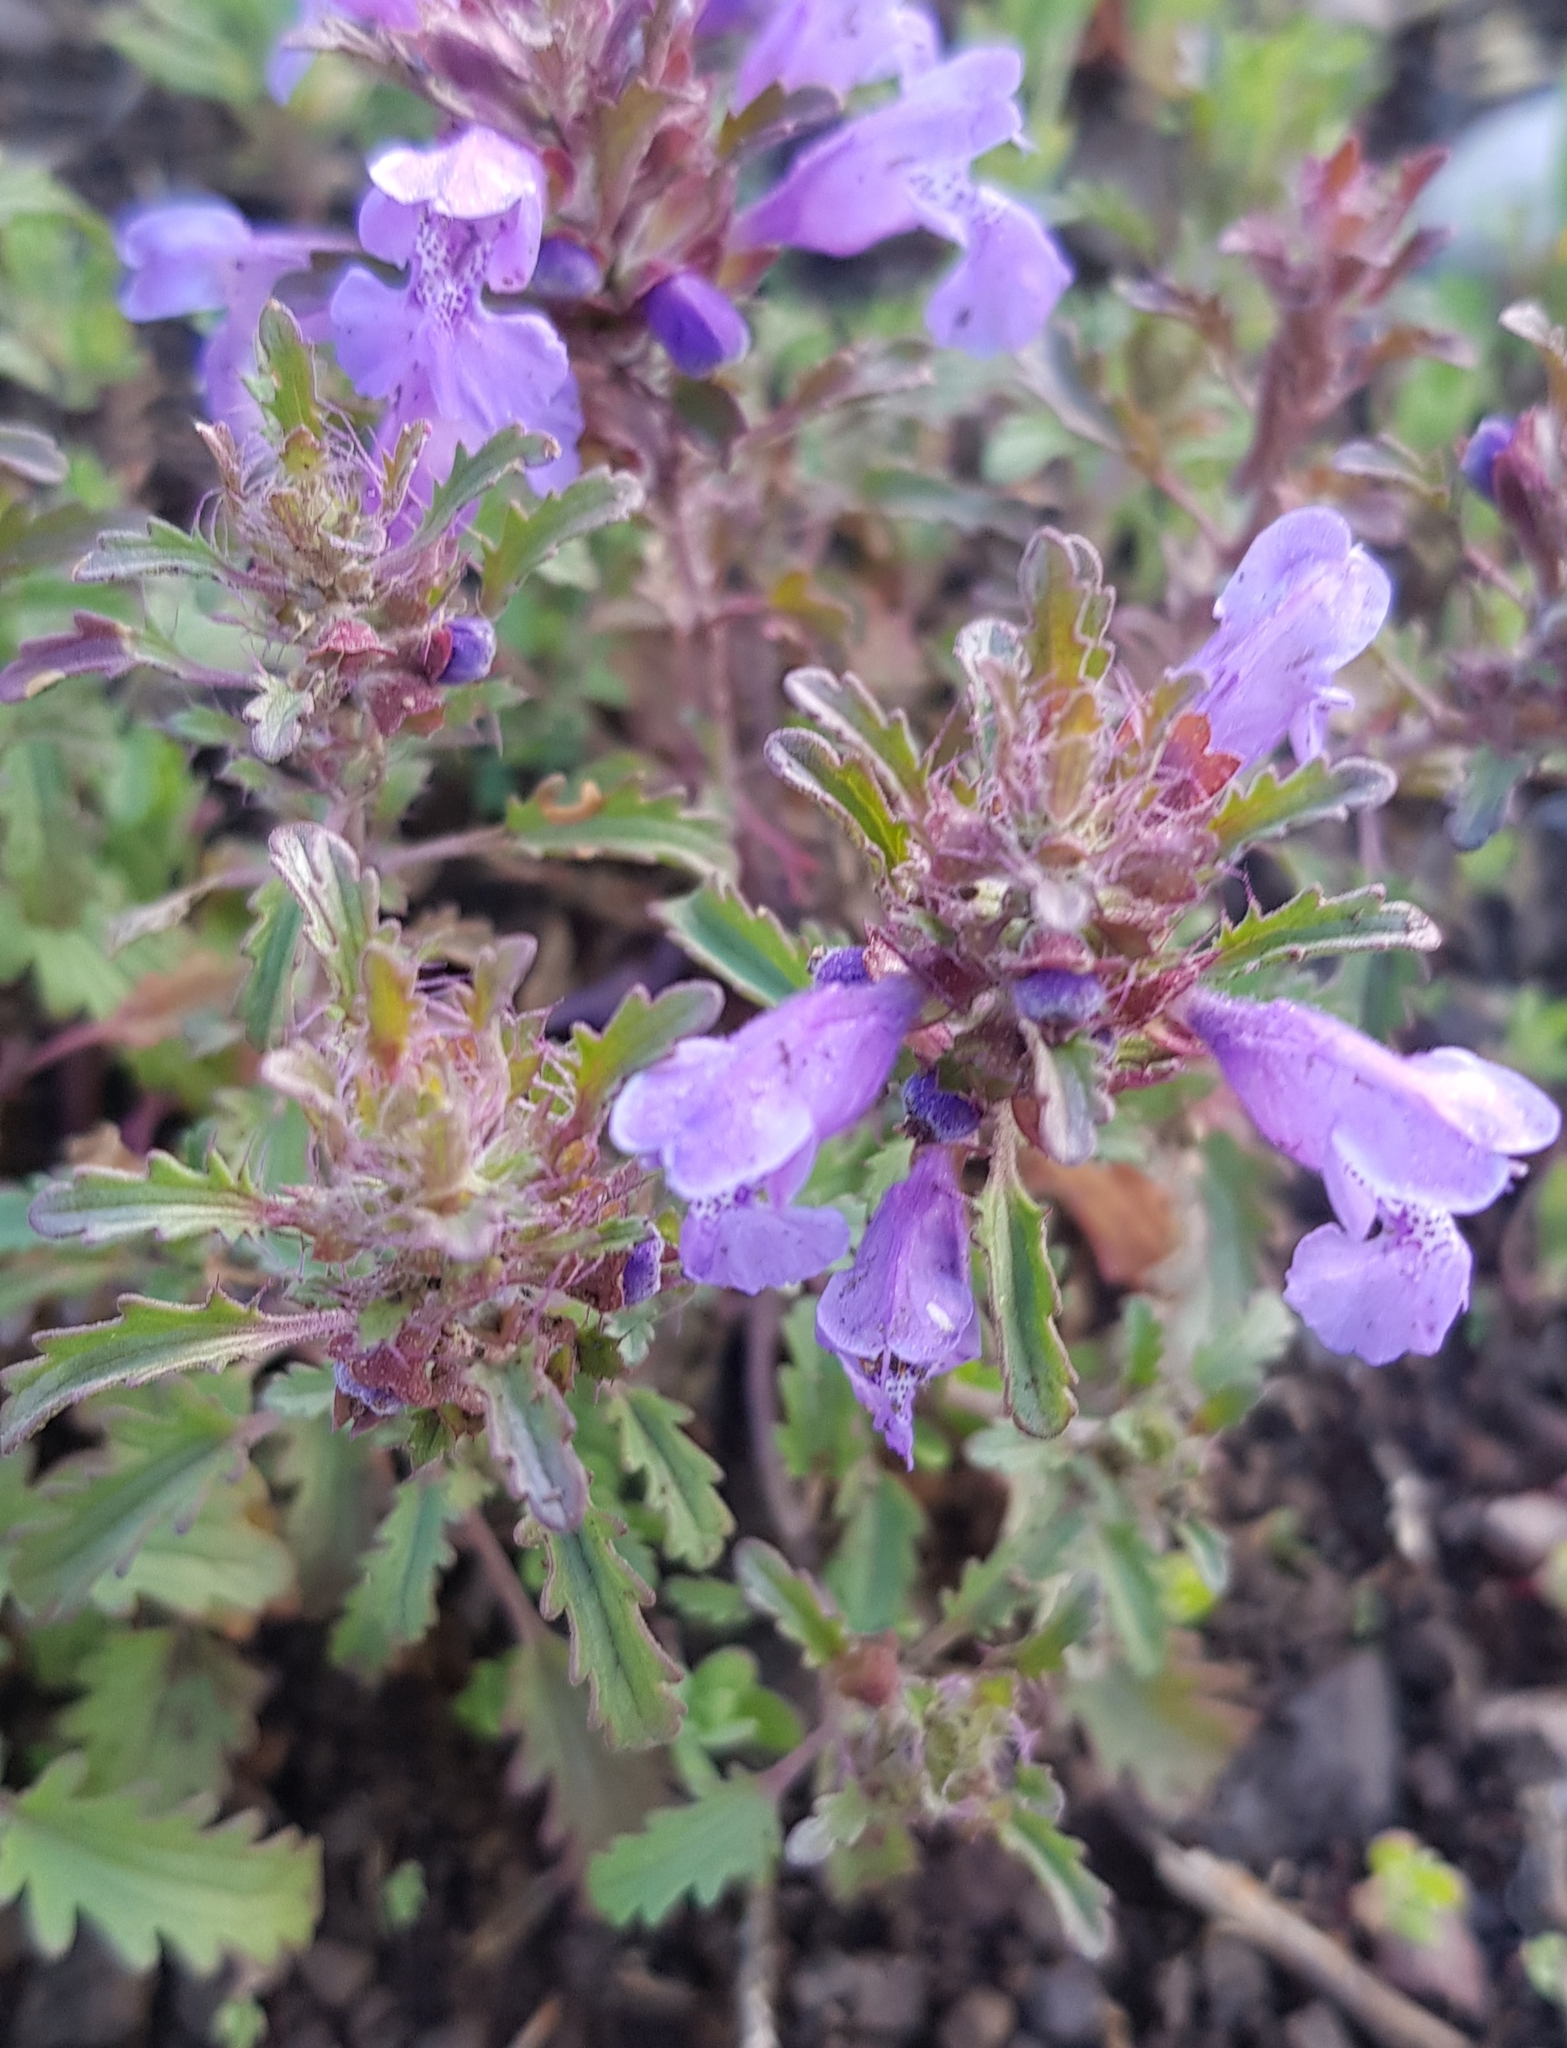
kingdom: Plantae
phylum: Tracheophyta
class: Magnoliopsida
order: Lamiales
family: Lamiaceae
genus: Dracocephalum
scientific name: Dracocephalum foetidum
